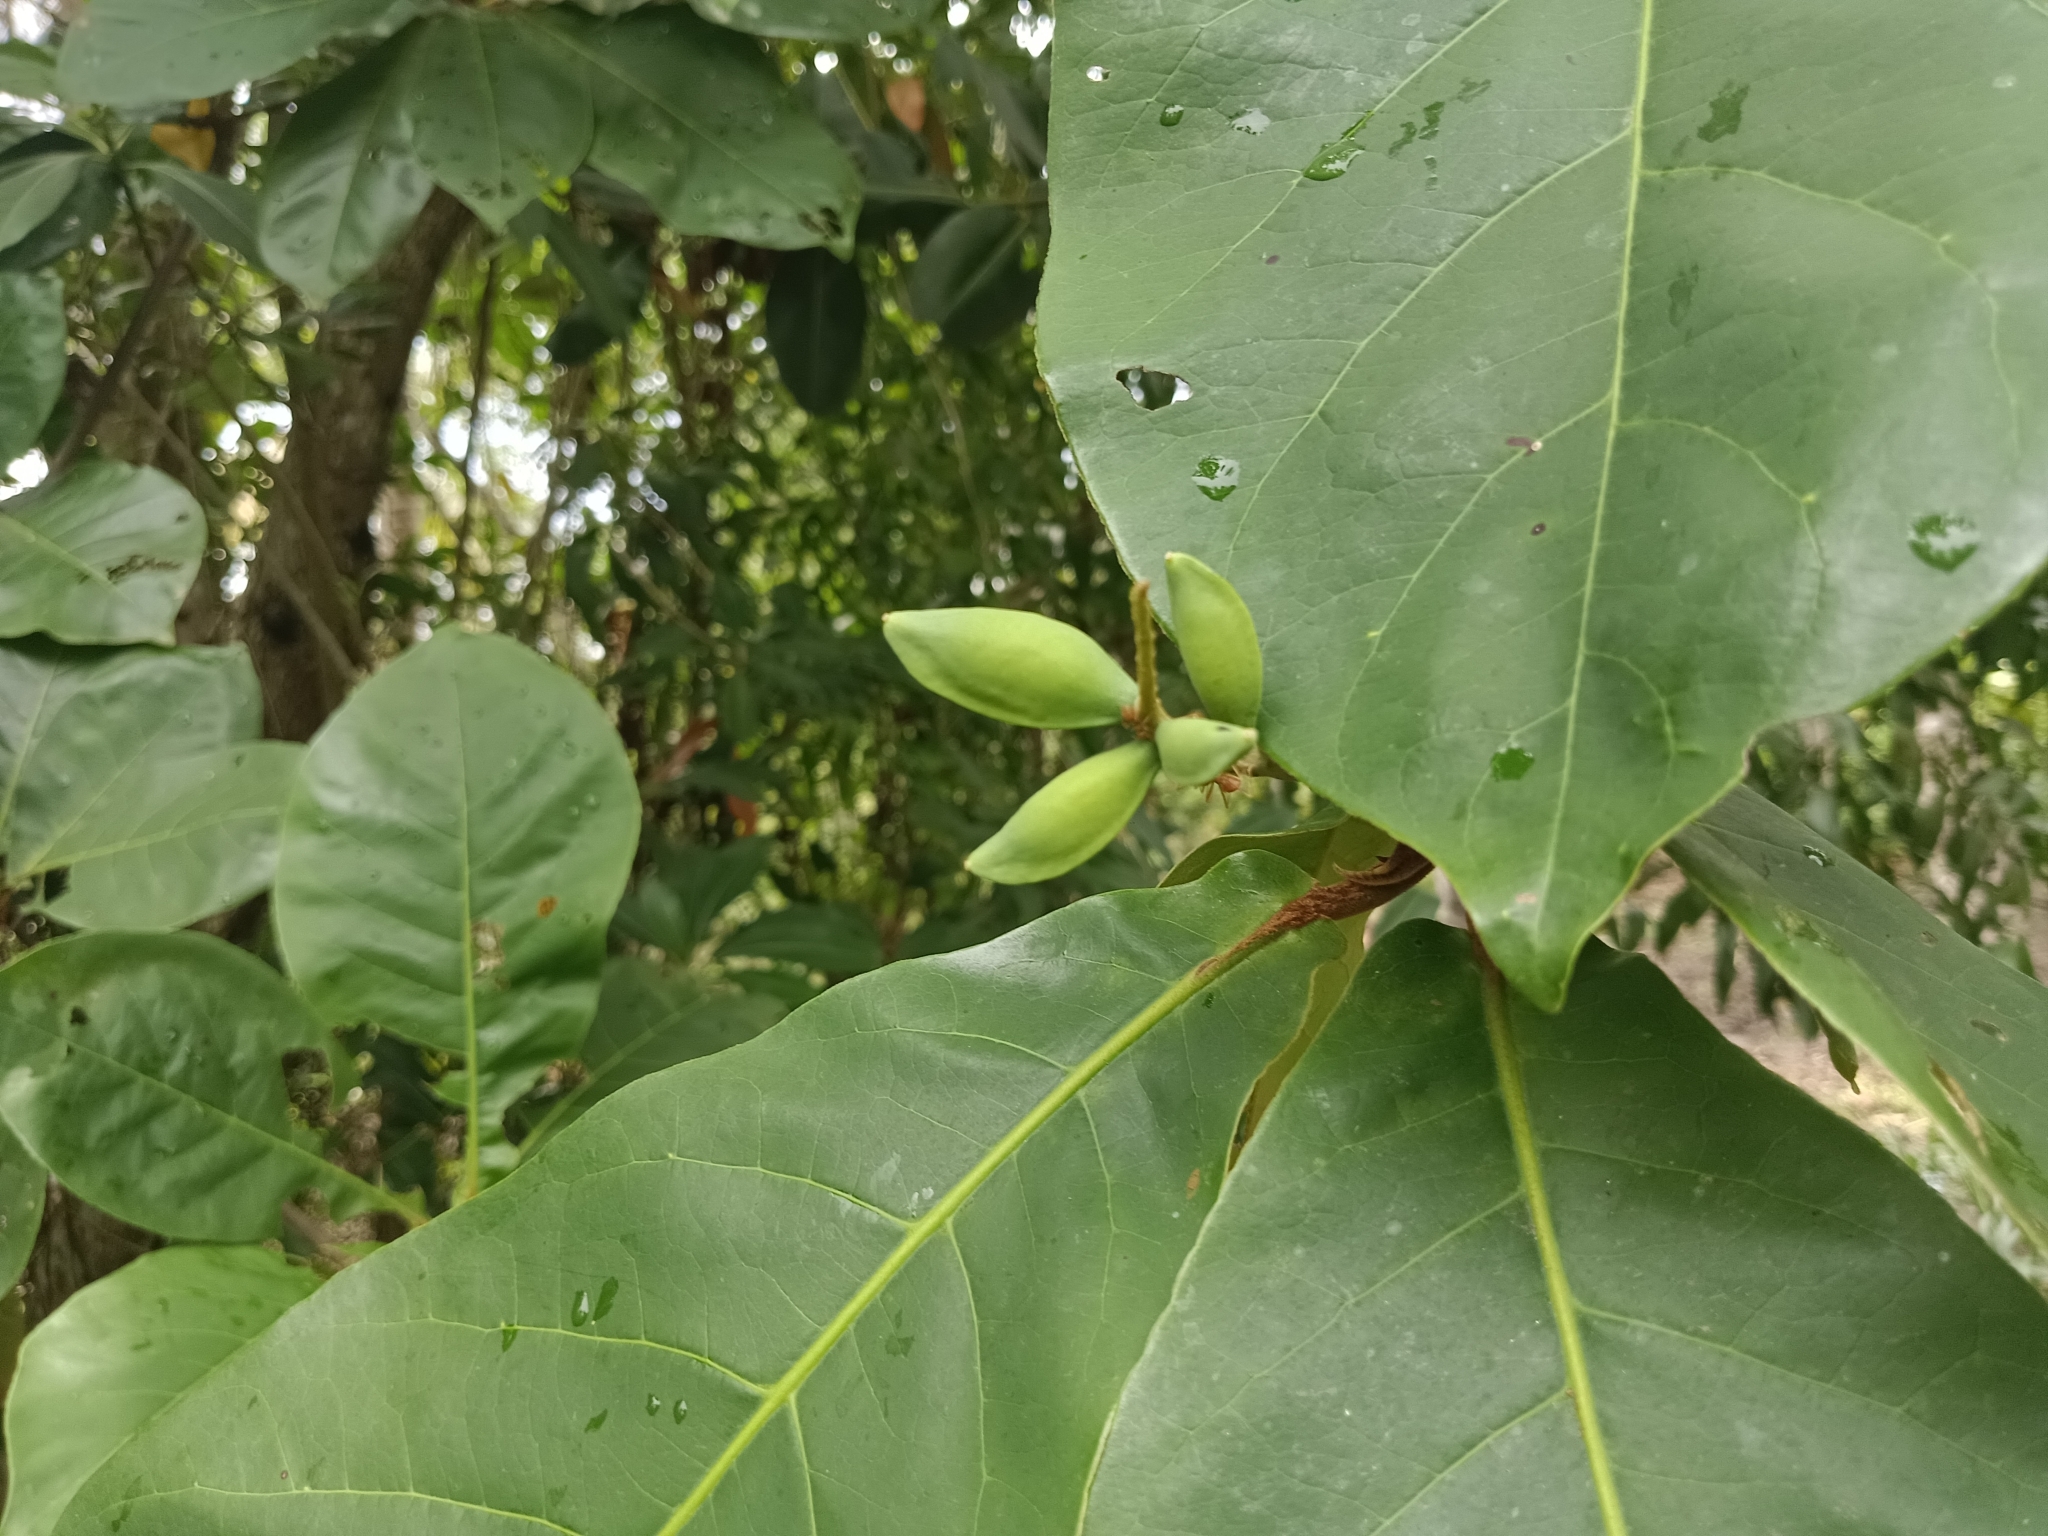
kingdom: Plantae
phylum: Tracheophyta
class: Magnoliopsida
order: Myrtales
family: Combretaceae
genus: Terminalia
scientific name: Terminalia catappa
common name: Tropical almond
